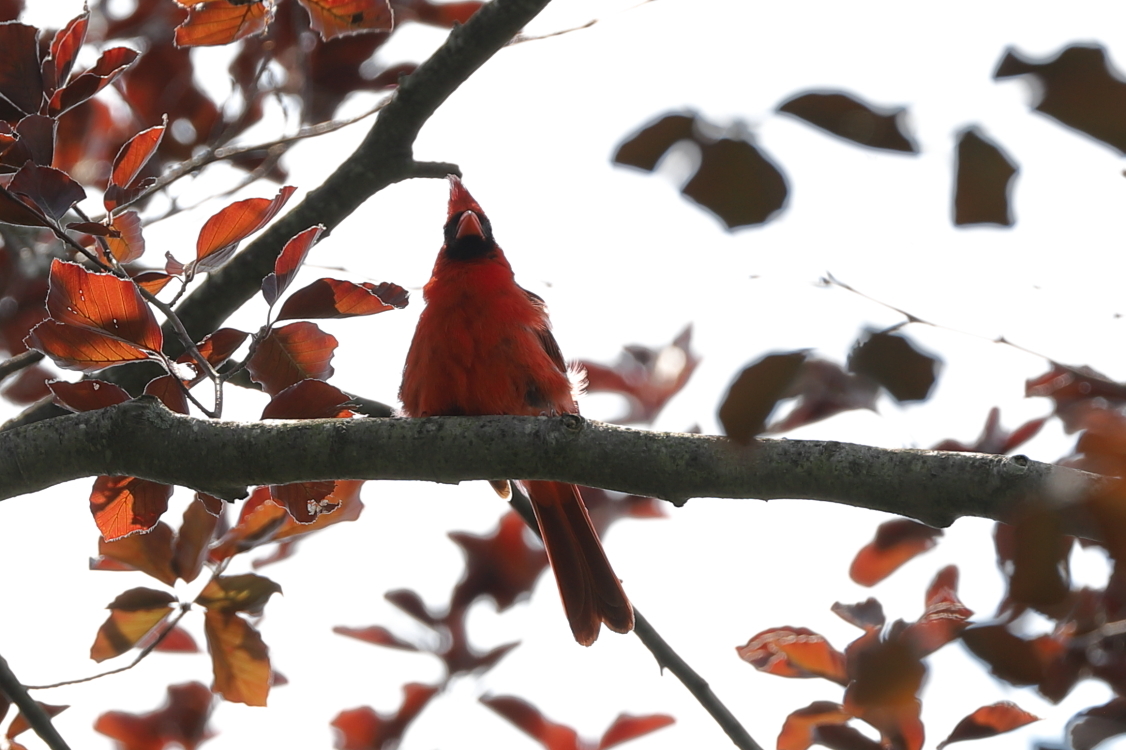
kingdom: Animalia
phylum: Chordata
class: Aves
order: Passeriformes
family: Cardinalidae
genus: Cardinalis
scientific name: Cardinalis cardinalis
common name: Northern cardinal
